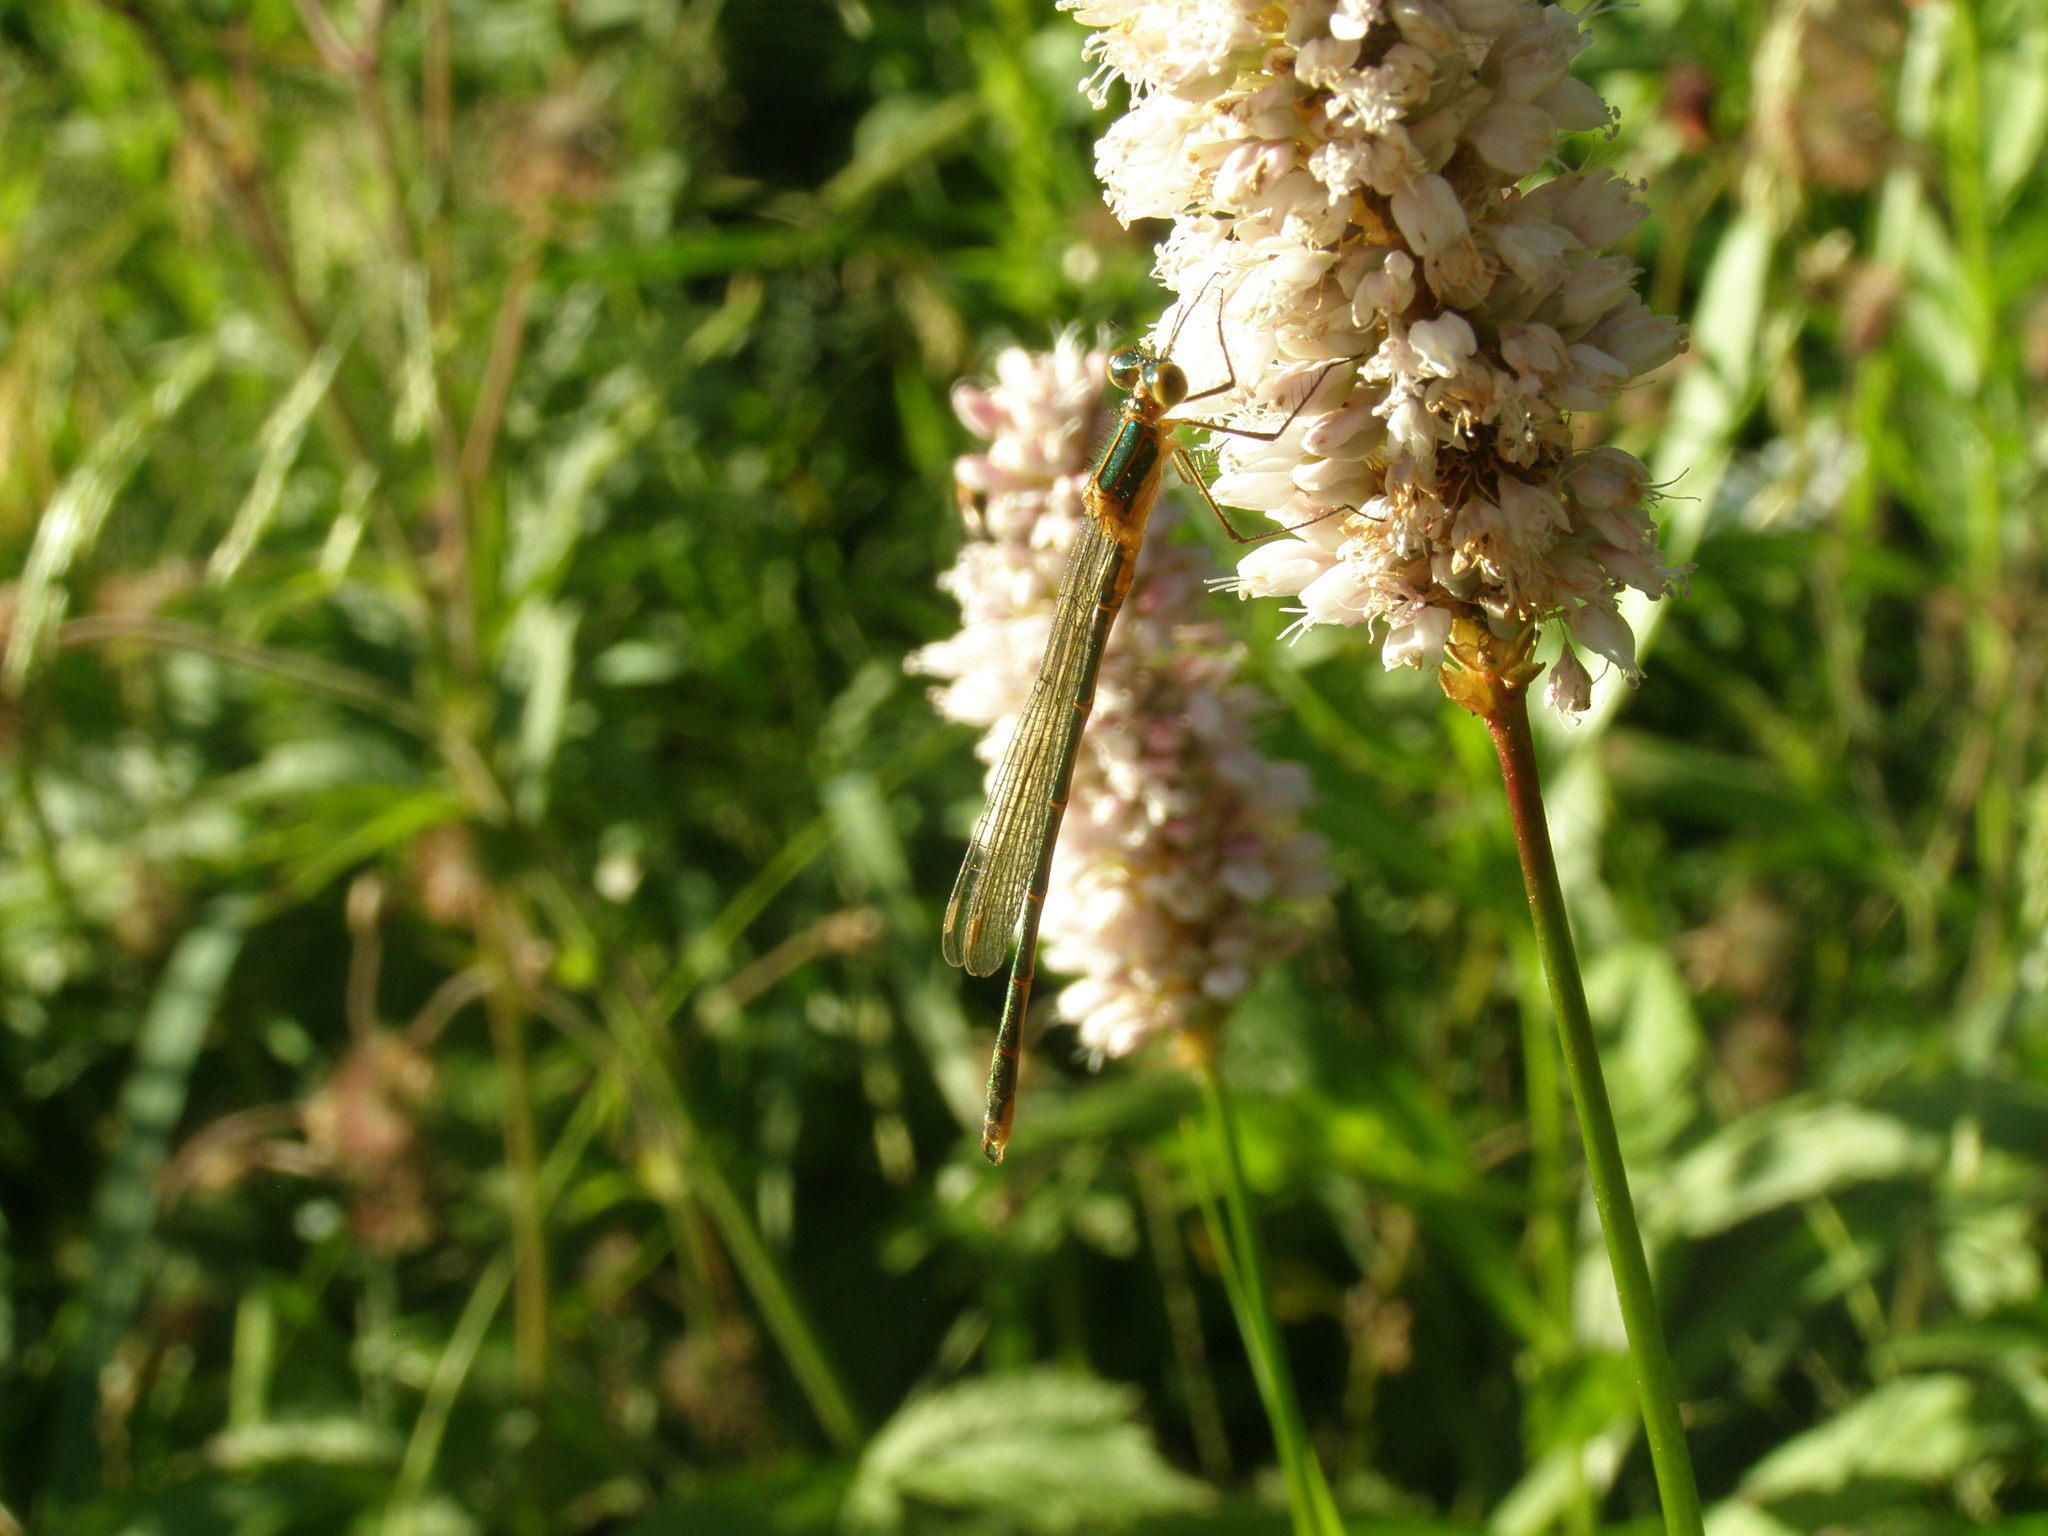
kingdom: Animalia
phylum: Arthropoda
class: Insecta
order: Odonata
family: Lestidae
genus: Lestes
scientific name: Lestes virens
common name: Small emerald spreadwing
